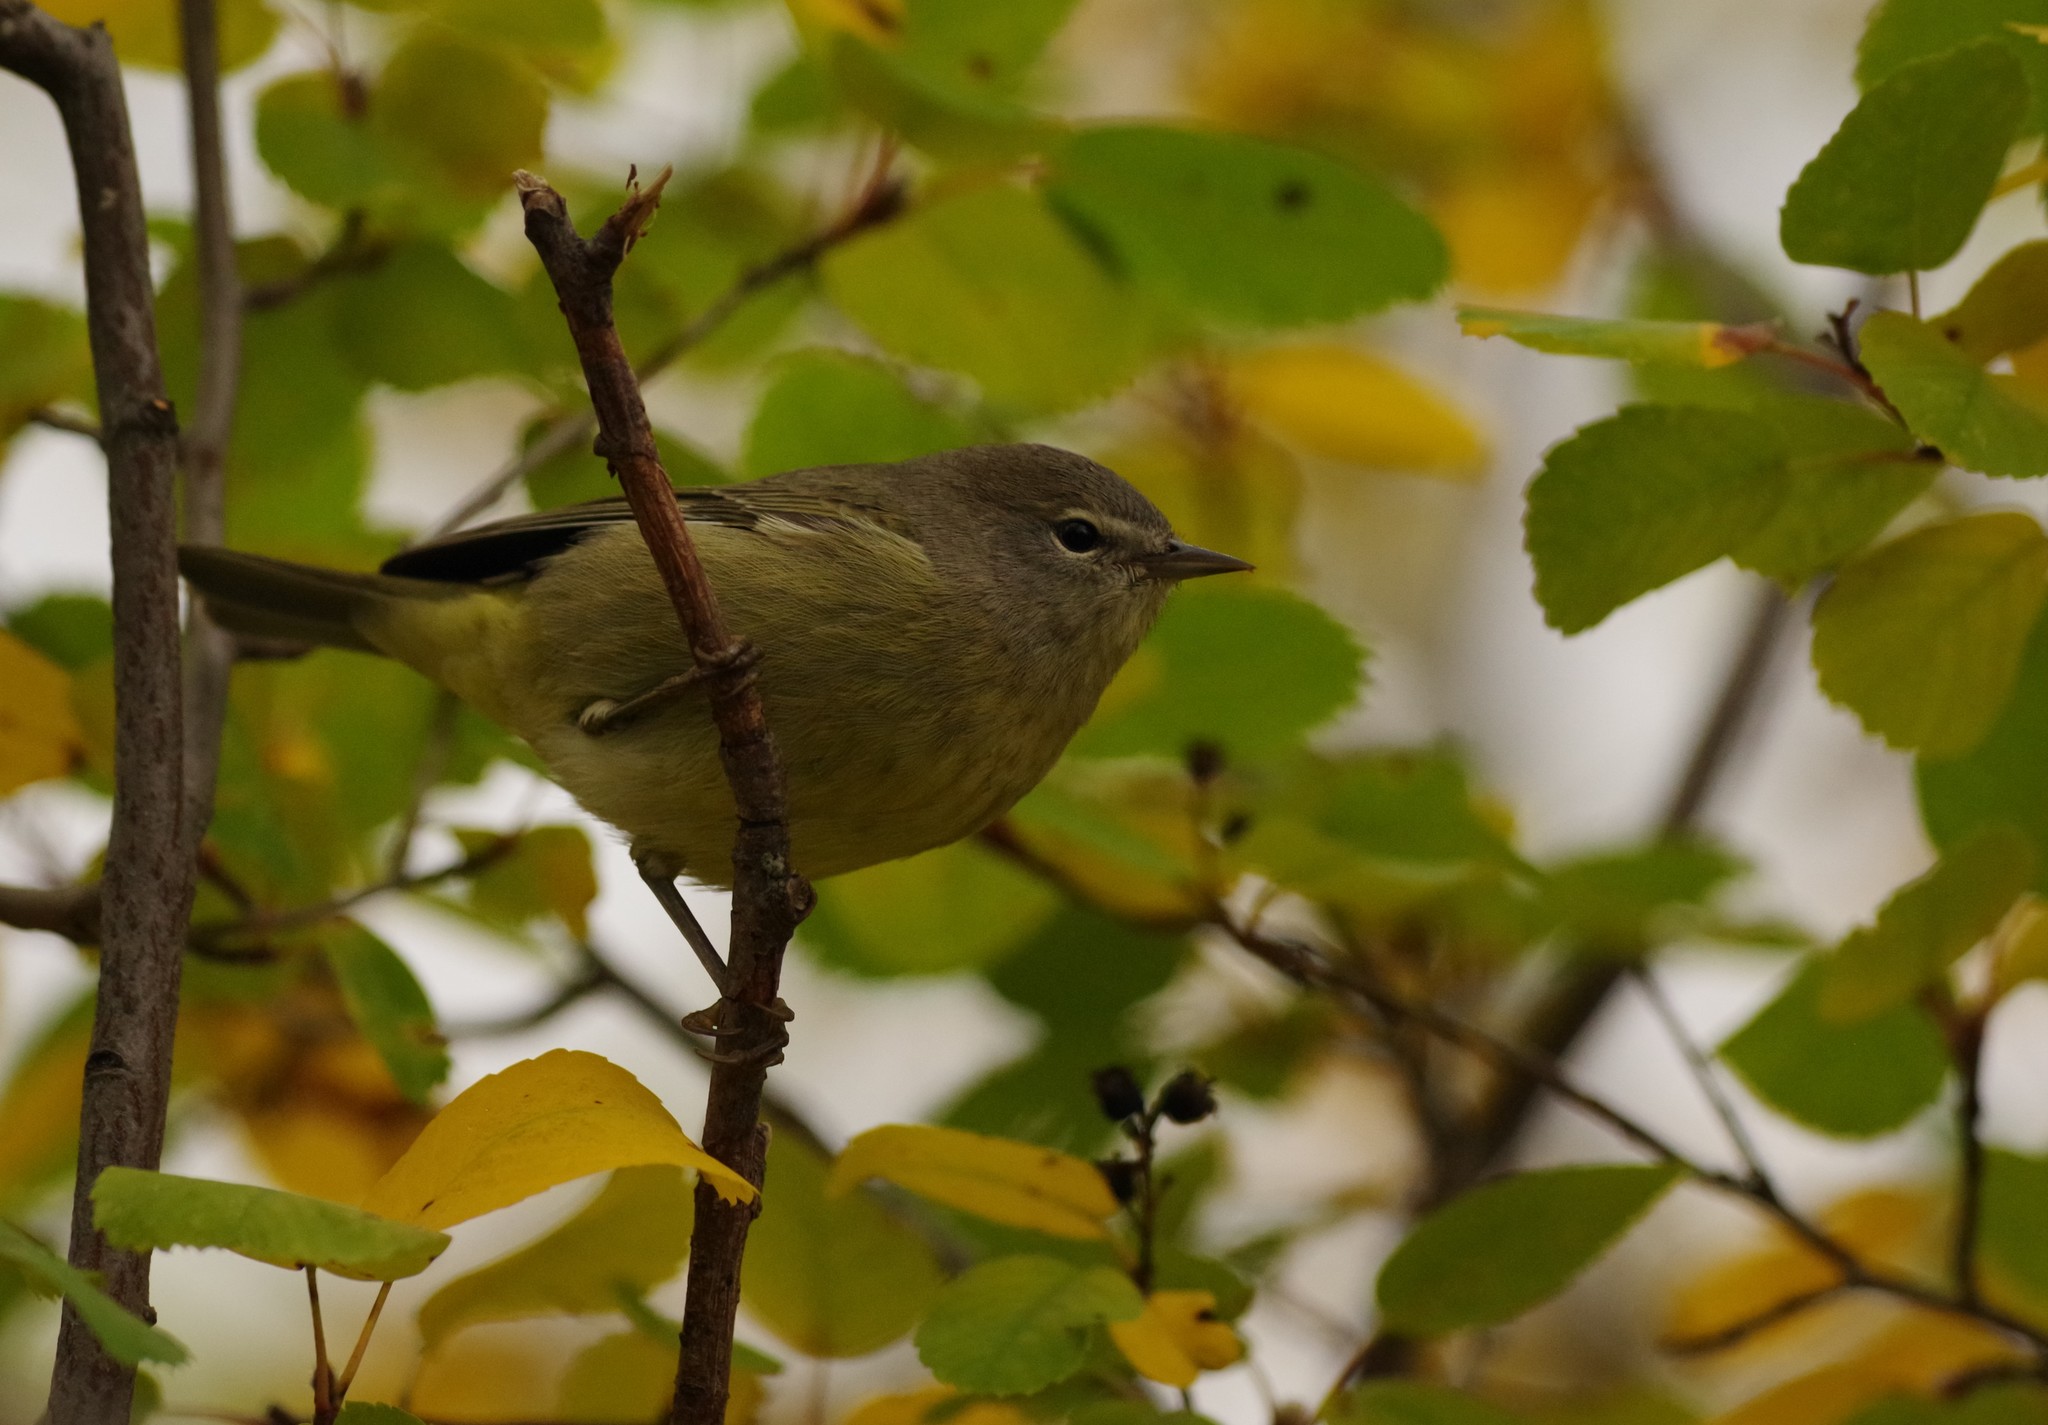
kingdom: Animalia
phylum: Chordata
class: Aves
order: Passeriformes
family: Parulidae
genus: Leiothlypis
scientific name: Leiothlypis celata
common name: Orange-crowned warbler
